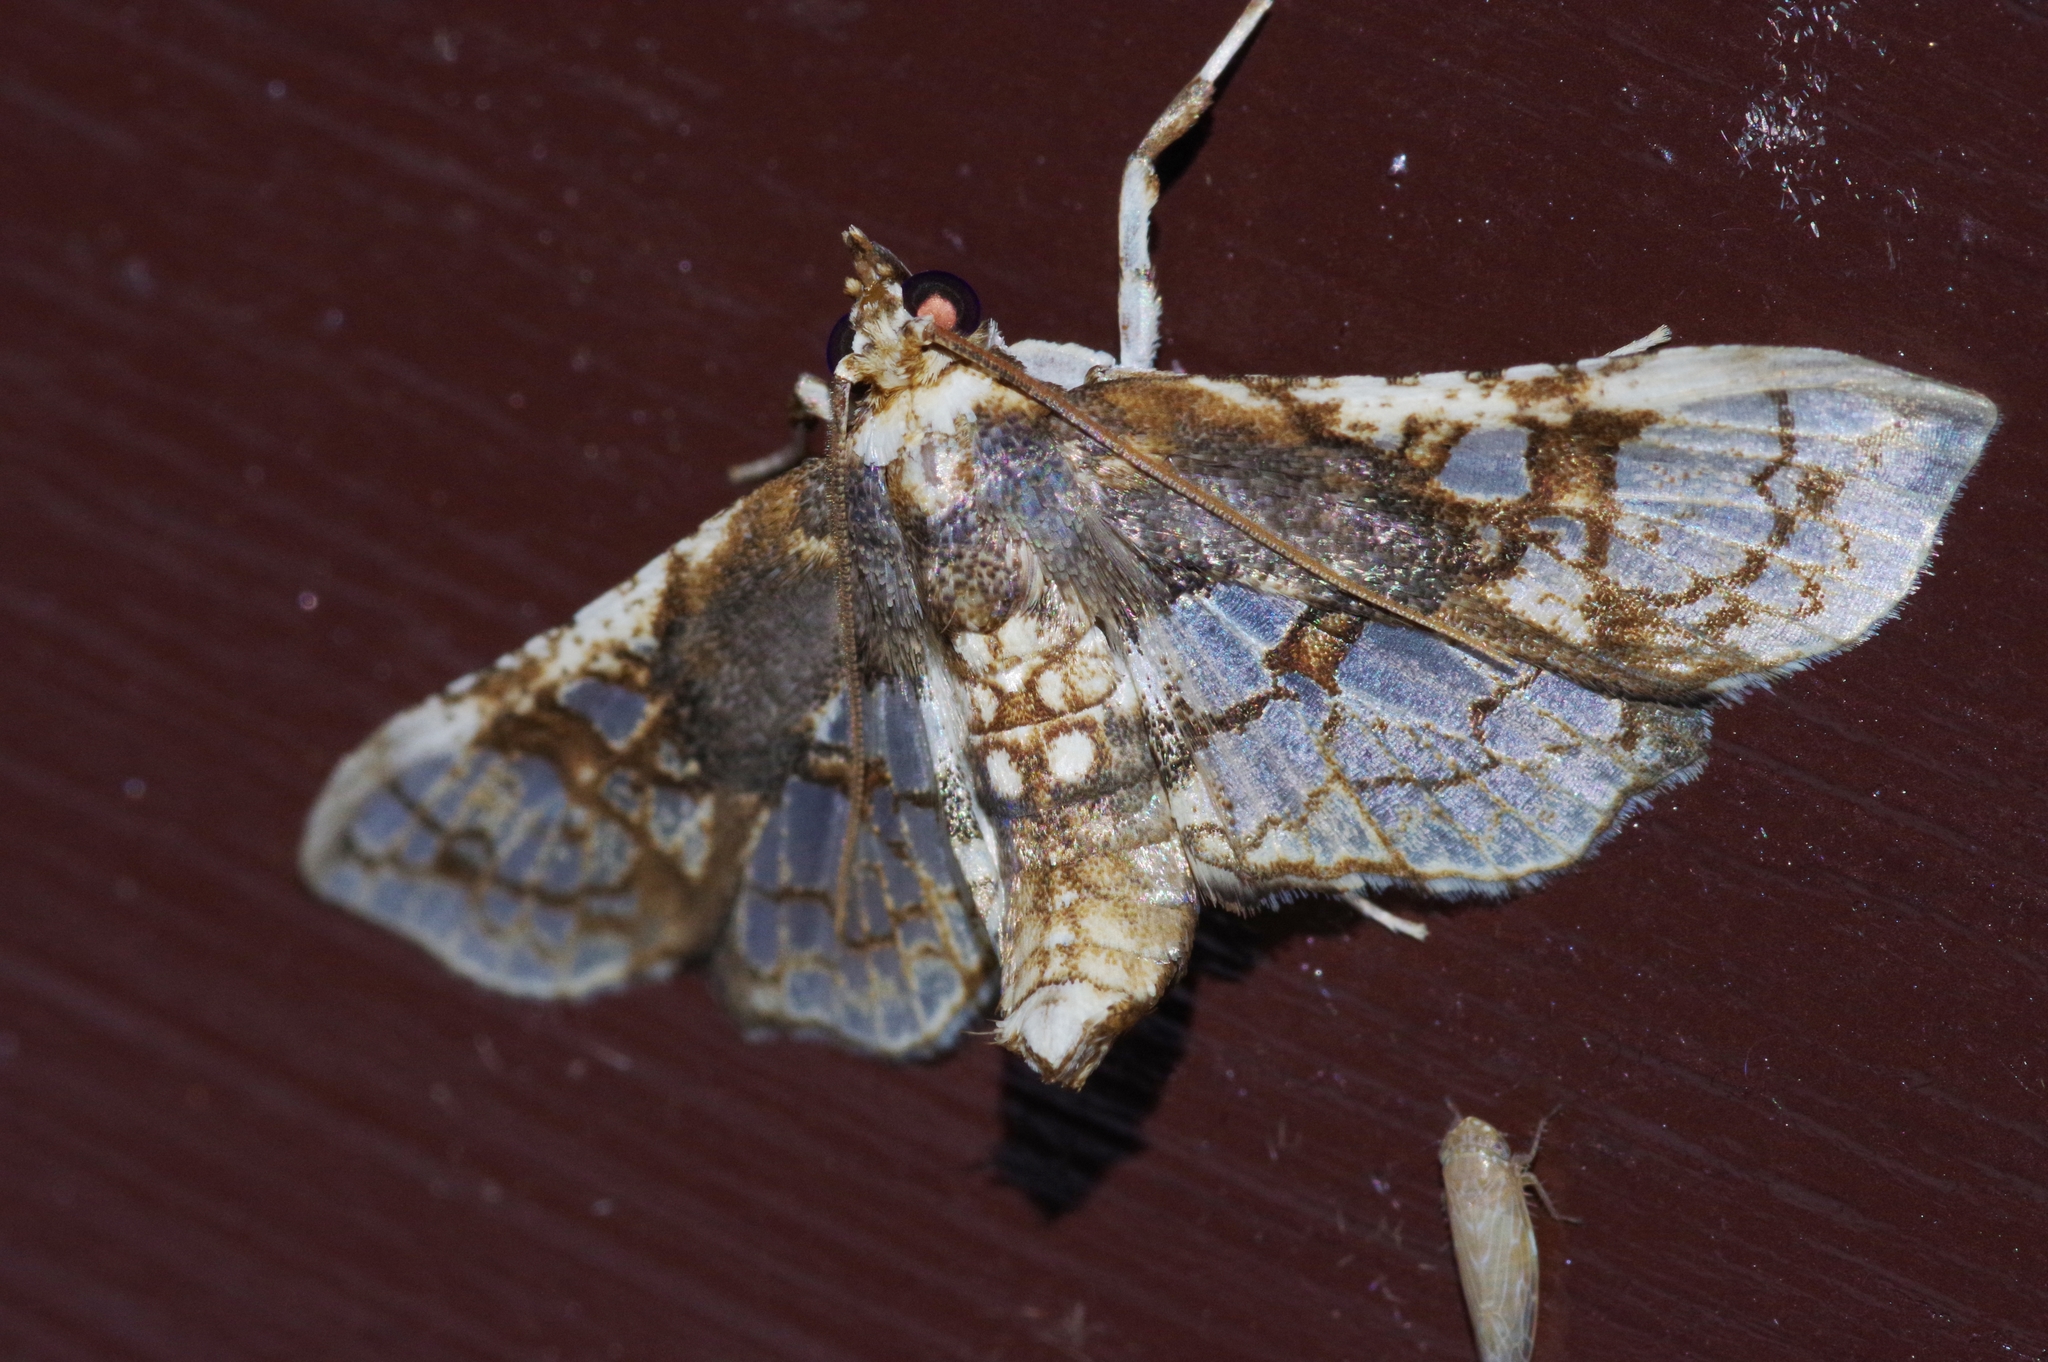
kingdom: Animalia
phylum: Arthropoda
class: Insecta
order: Lepidoptera
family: Crambidae
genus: Omphisa
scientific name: Omphisa anastomosalis
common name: Sweetpotato vineborer
